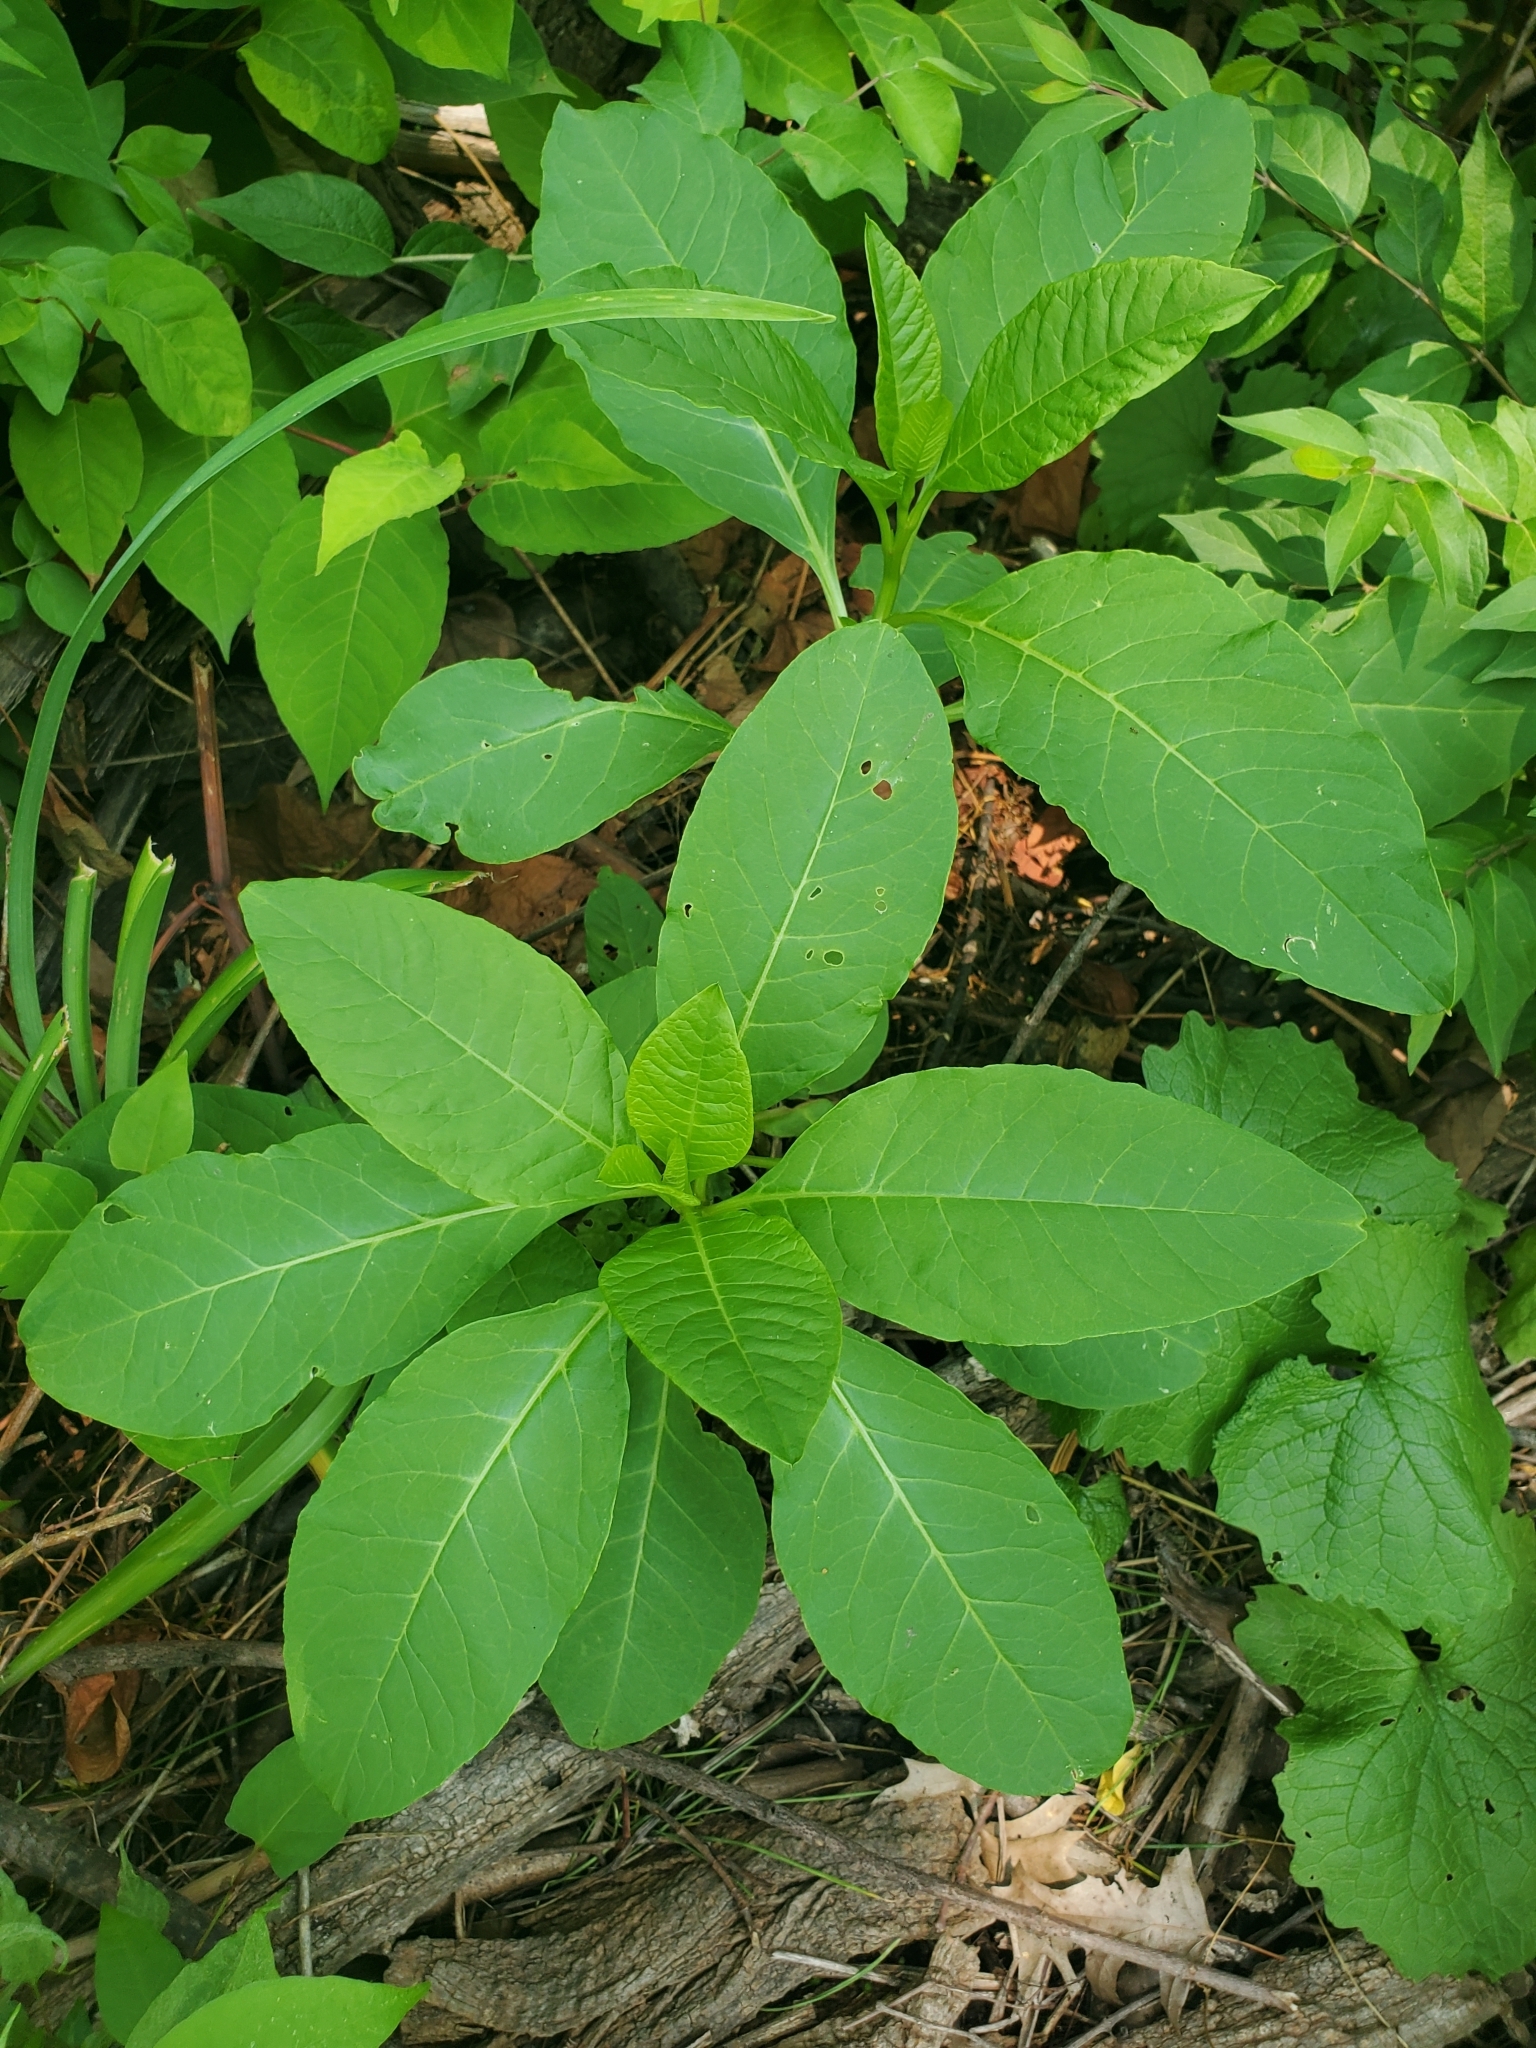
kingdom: Plantae
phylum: Tracheophyta
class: Magnoliopsida
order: Caryophyllales
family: Phytolaccaceae
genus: Phytolacca
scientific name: Phytolacca americana
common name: American pokeweed
